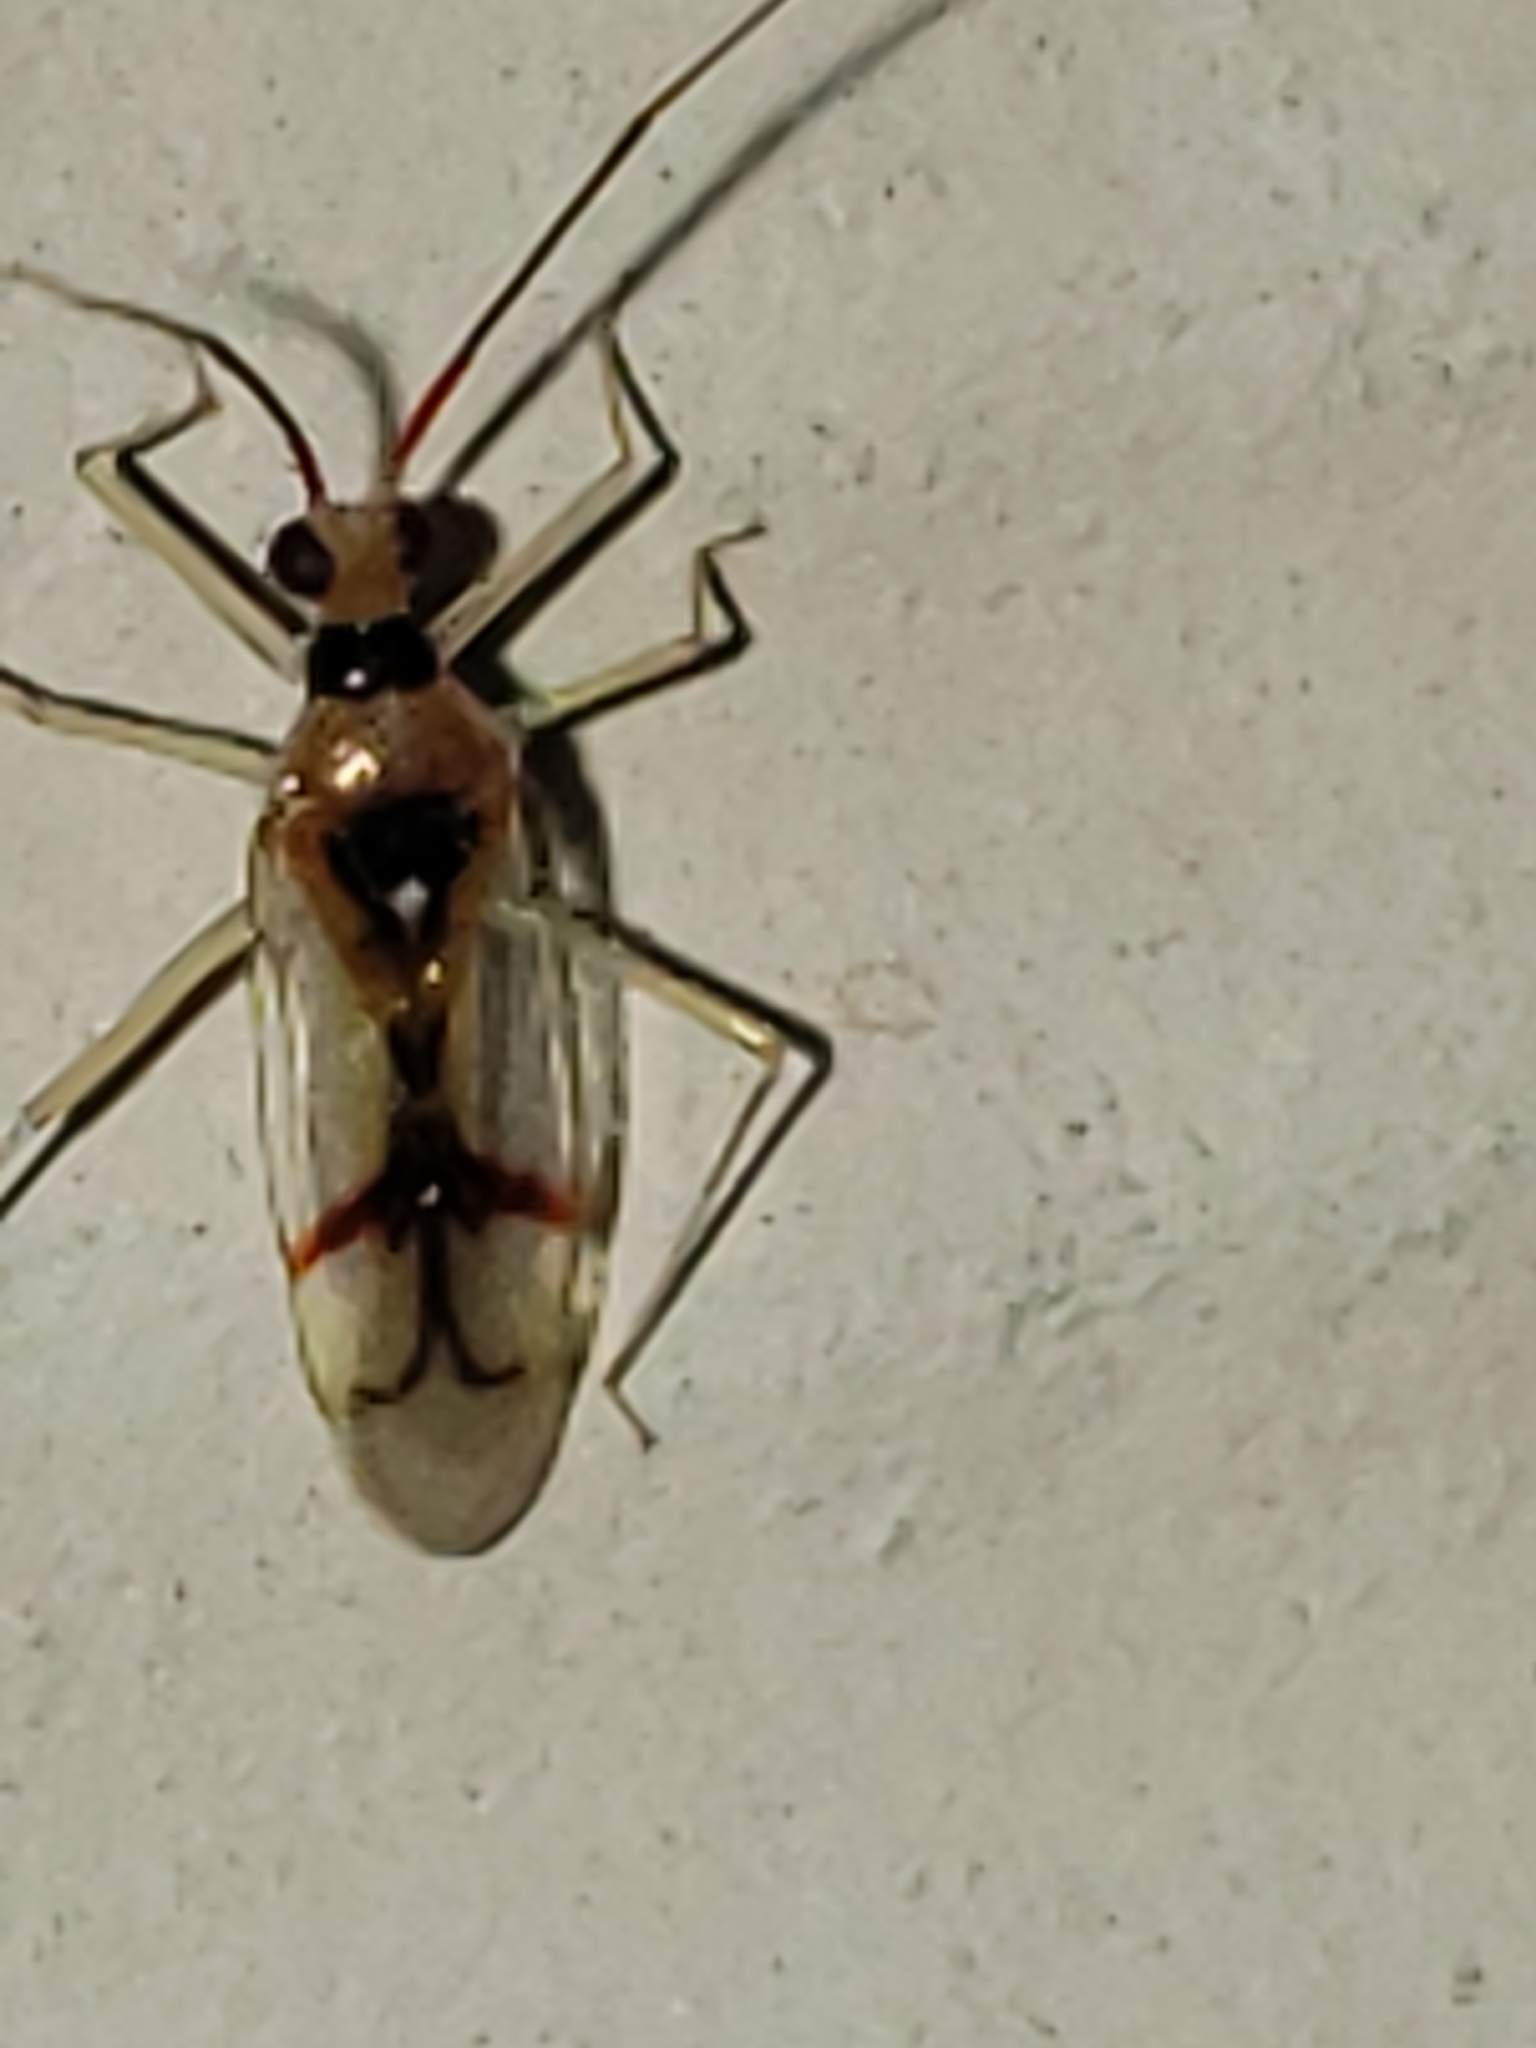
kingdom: Animalia
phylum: Arthropoda
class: Insecta
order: Hemiptera
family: Miridae
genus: Hyaliodes
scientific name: Hyaliodes harti
